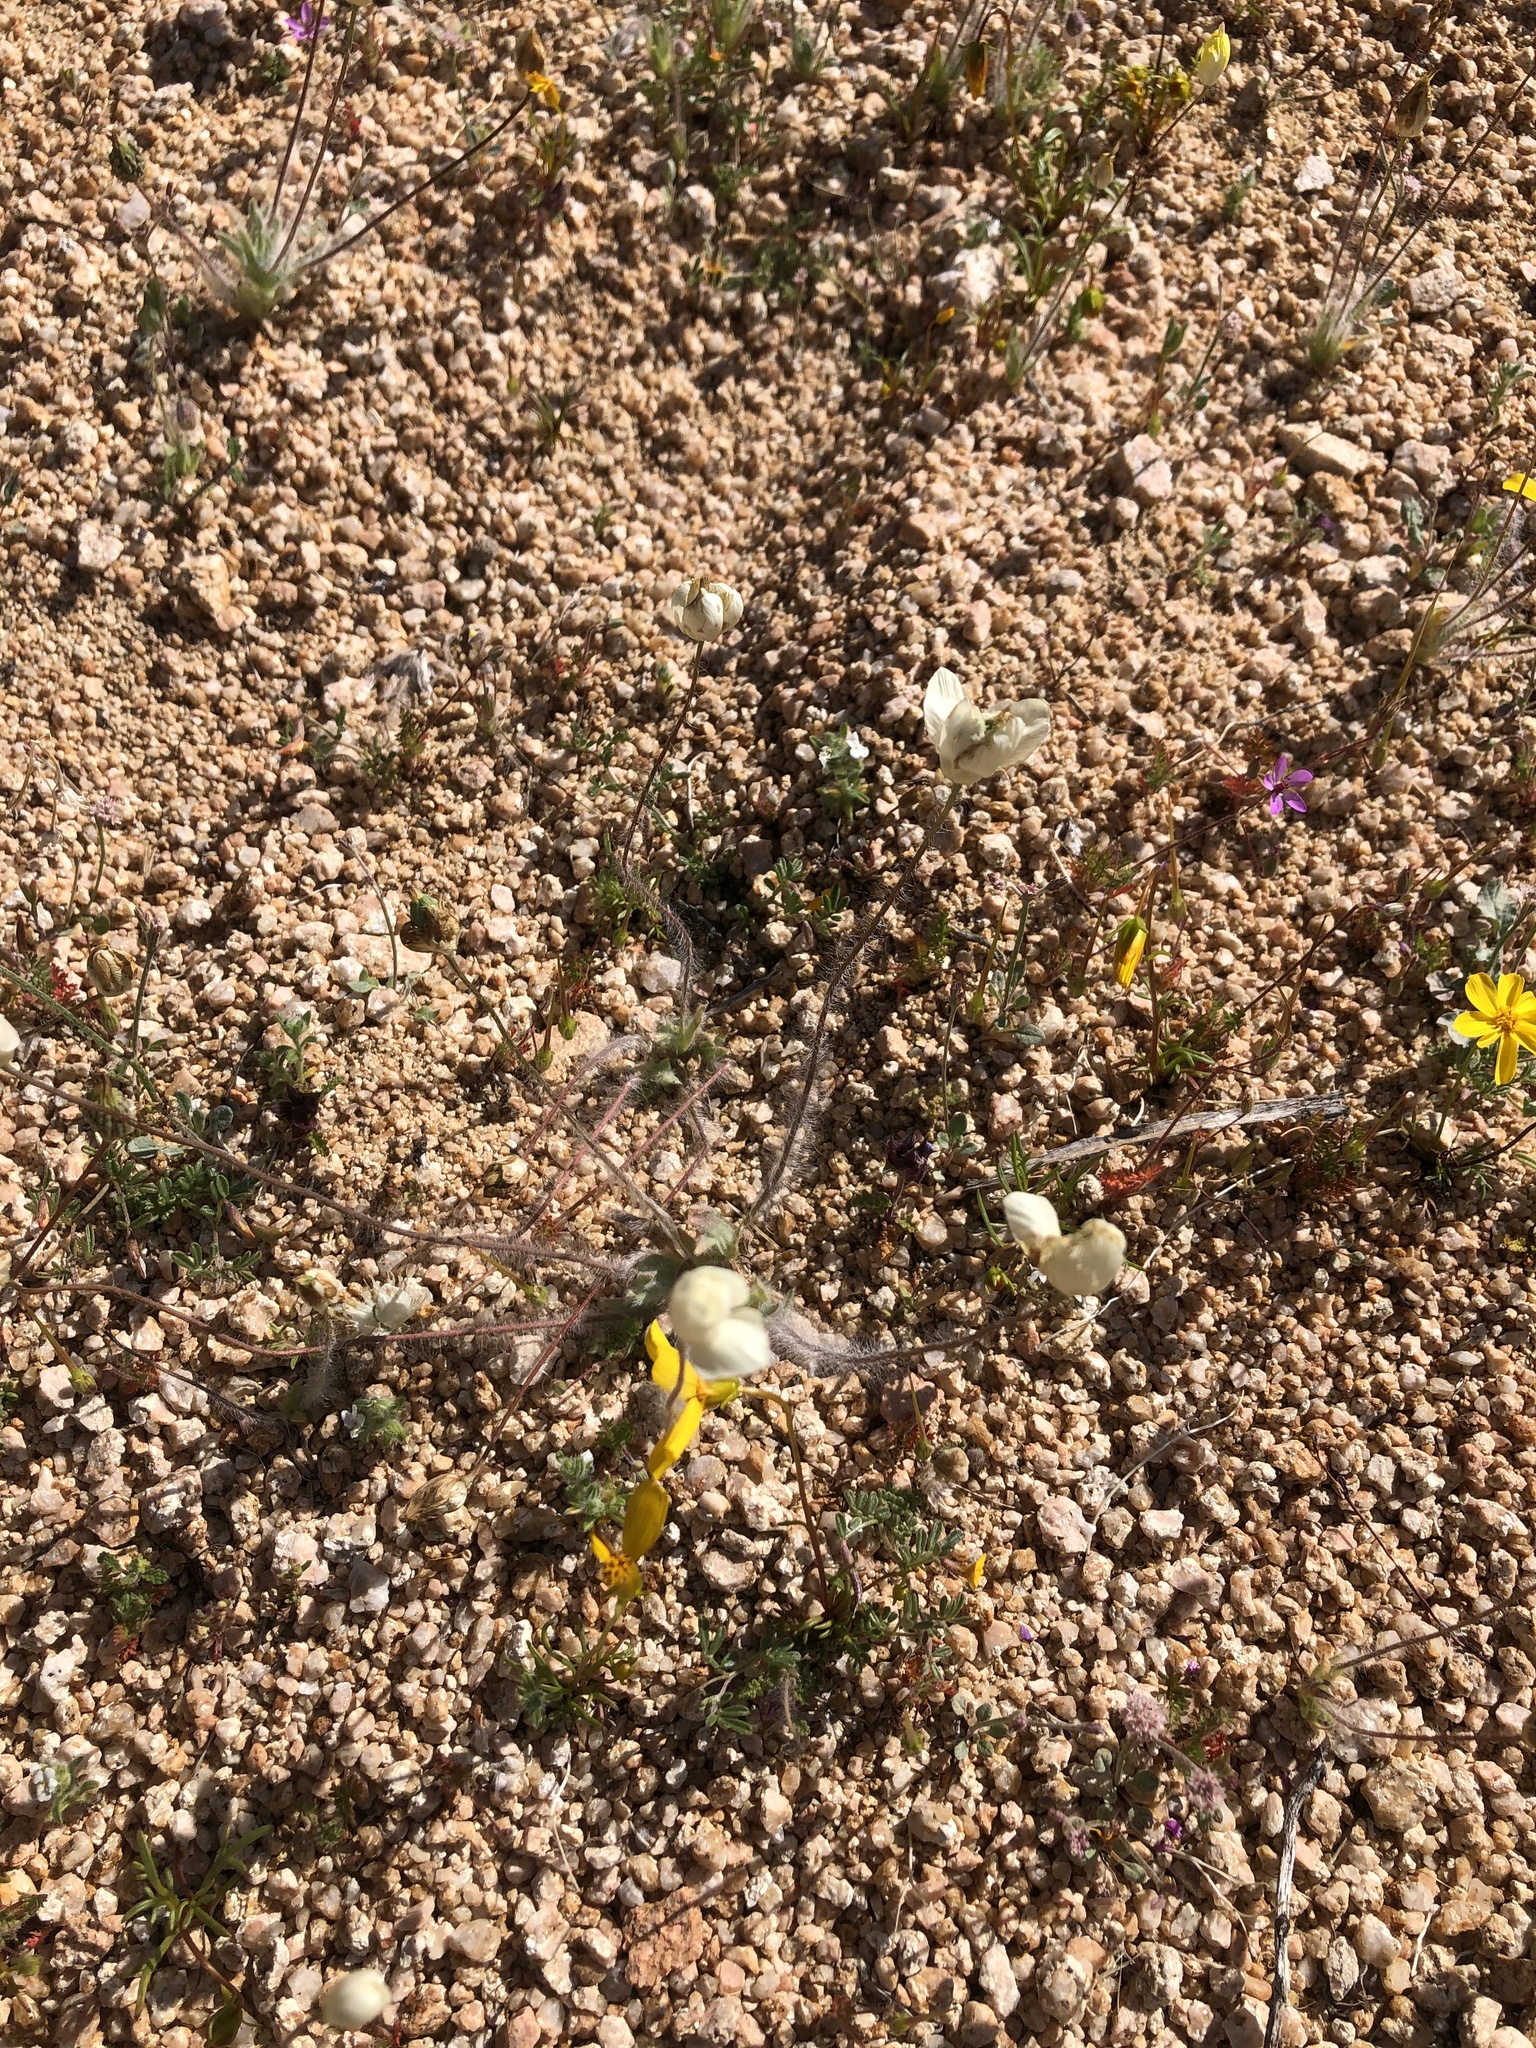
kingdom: Plantae
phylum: Tracheophyta
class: Magnoliopsida
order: Ranunculales
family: Papaveraceae
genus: Platystemon
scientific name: Platystemon californicus
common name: Cream-cups
